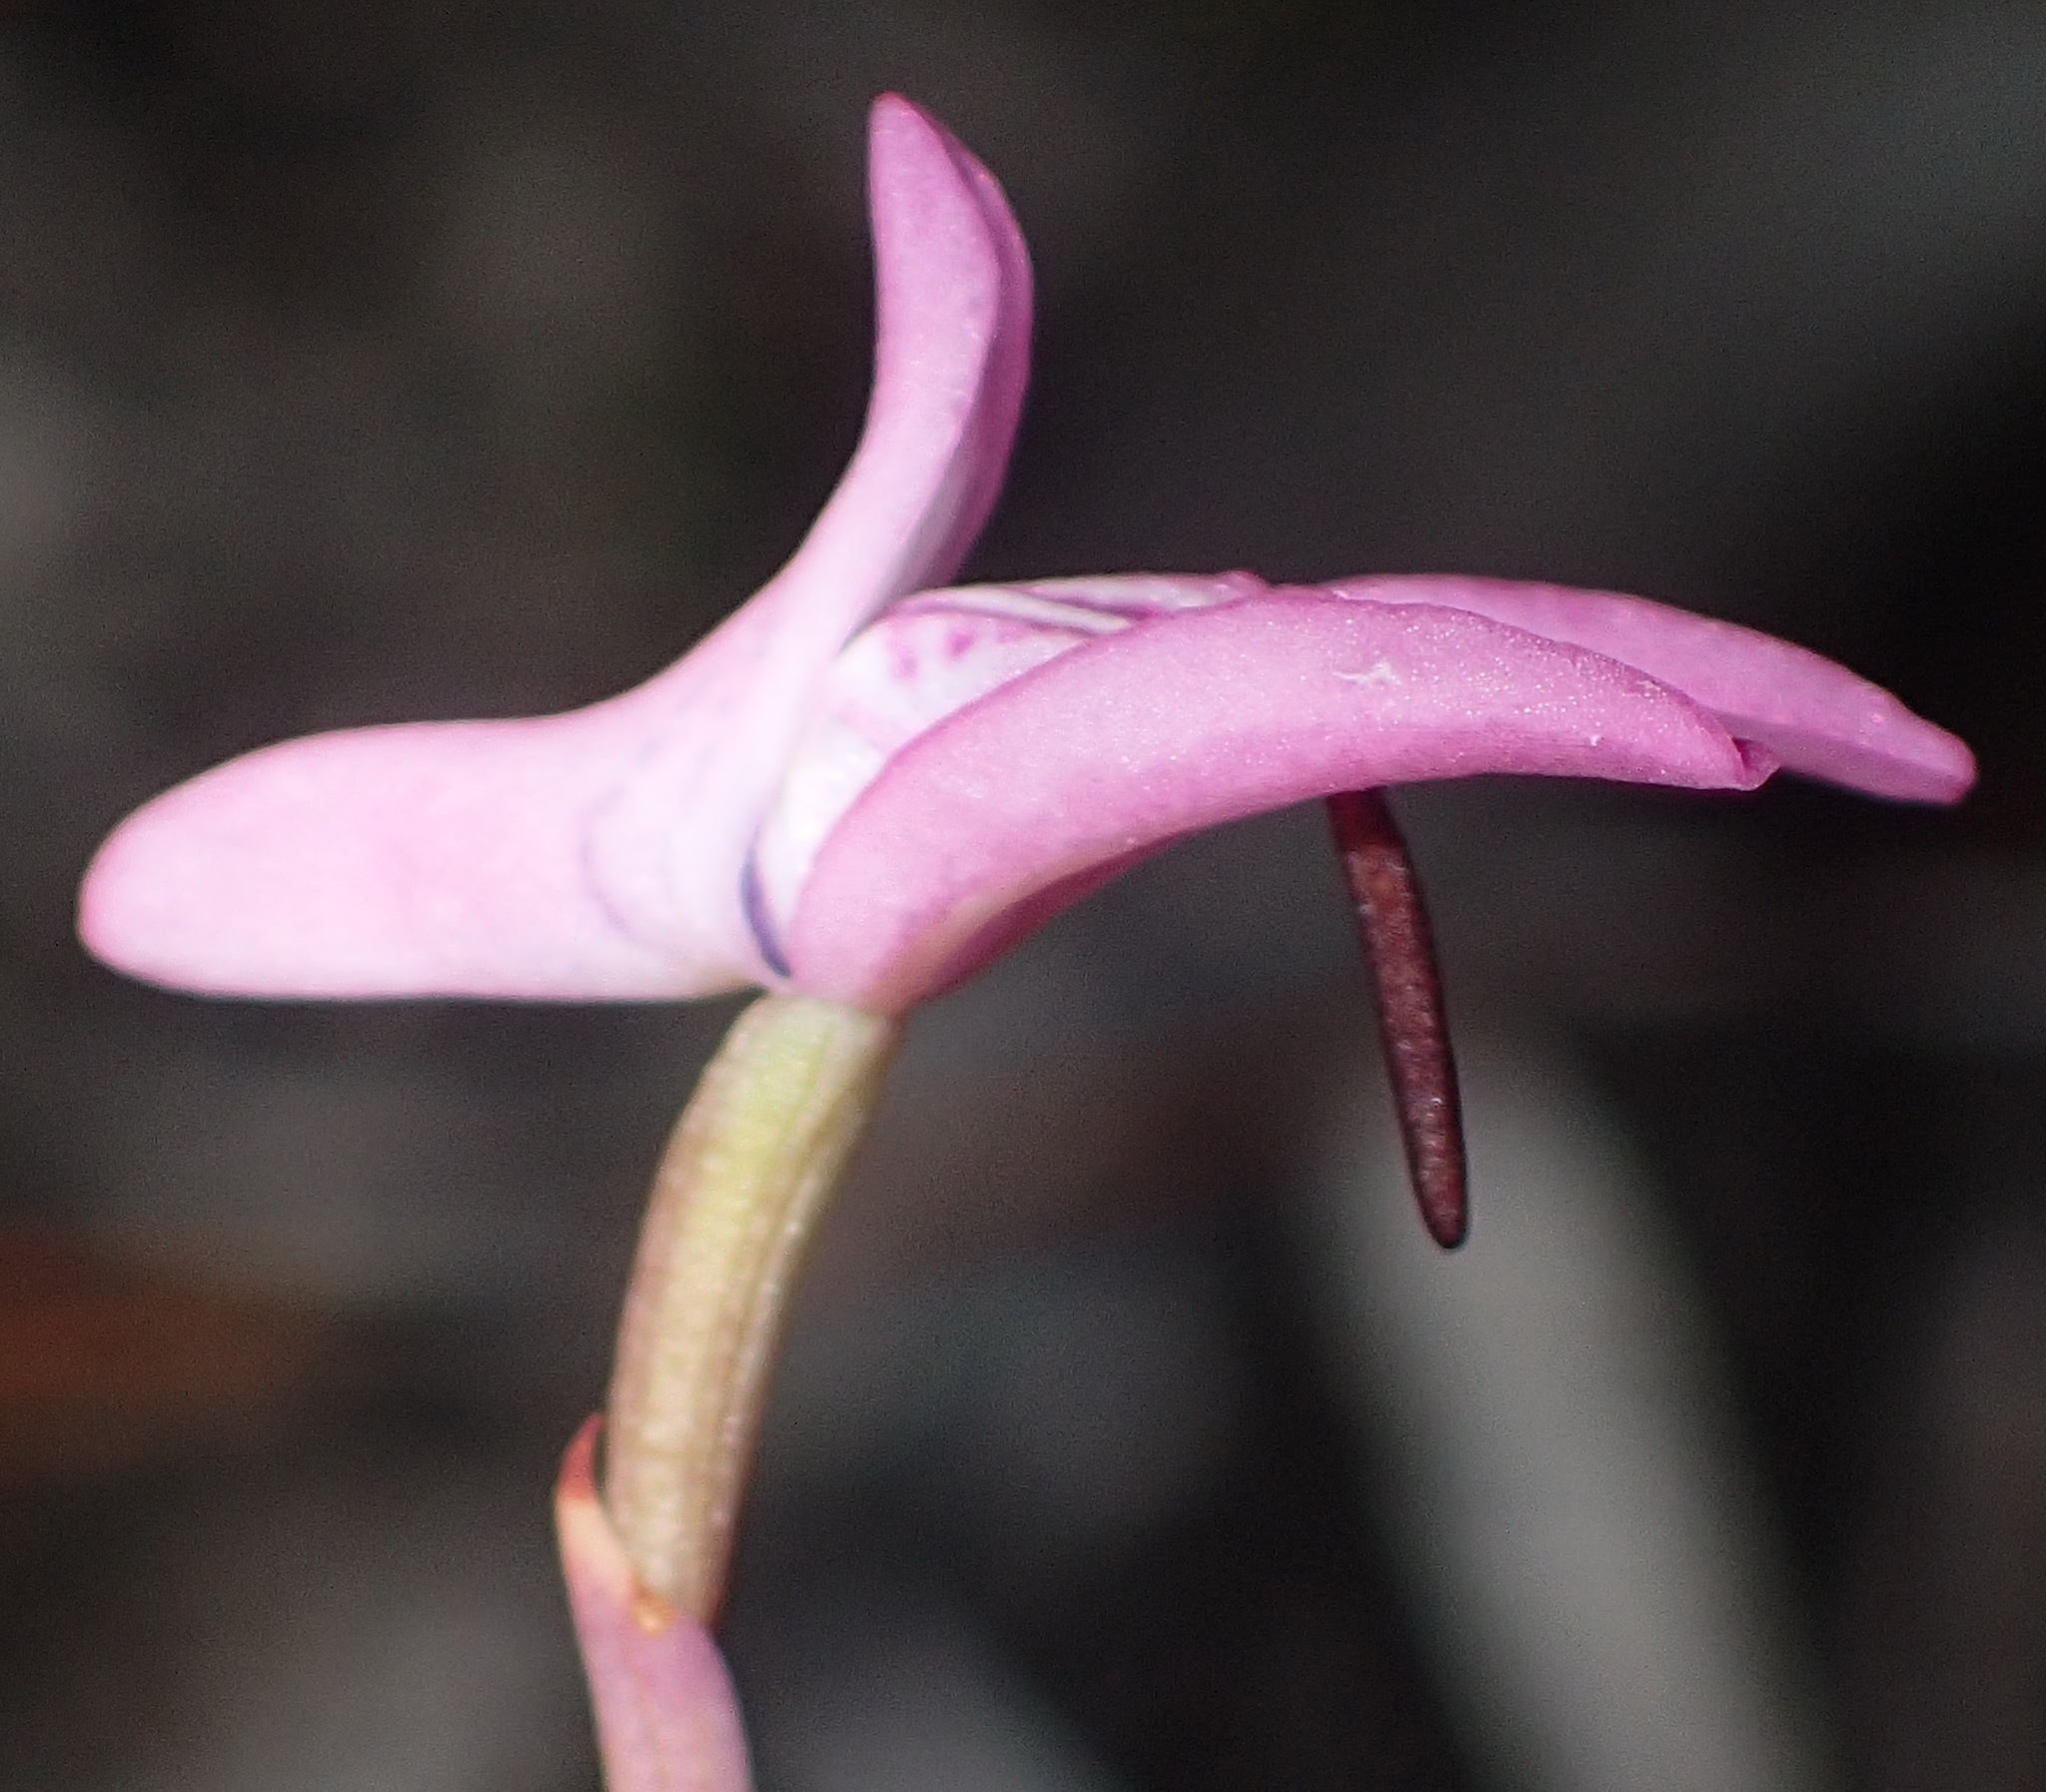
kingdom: Plantae
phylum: Tracheophyta
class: Liliopsida
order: Asparagales
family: Orchidaceae
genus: Disa
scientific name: Disa inflexa
